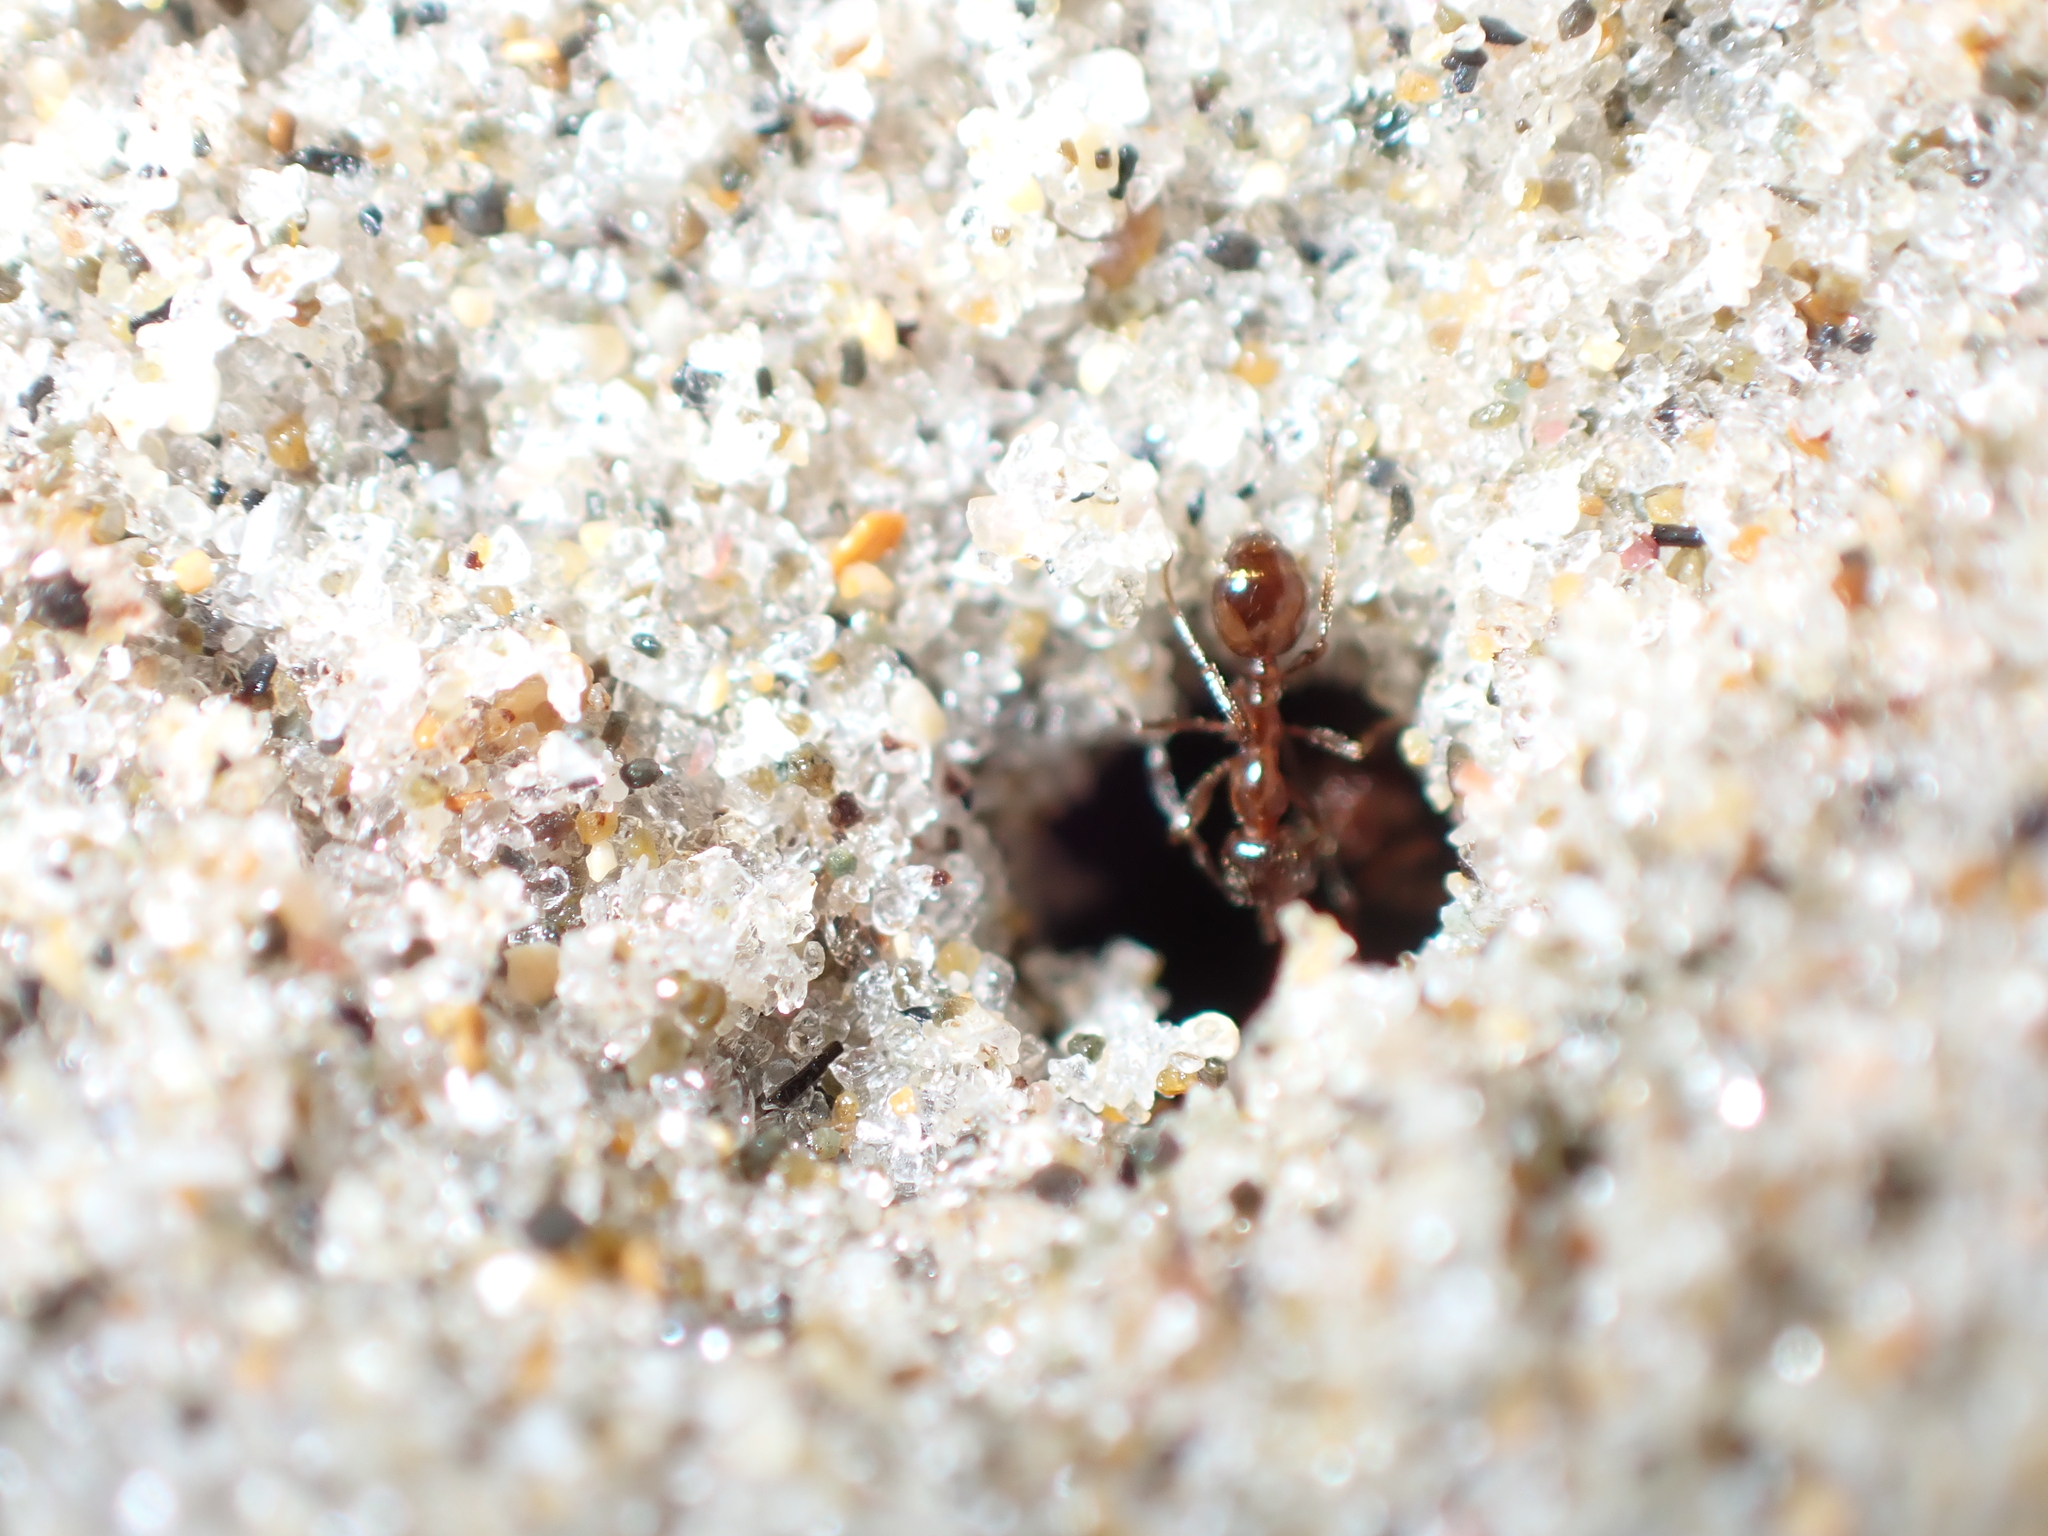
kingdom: Animalia
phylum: Arthropoda
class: Insecta
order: Hymenoptera
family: Formicidae
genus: Monomorium
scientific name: Monomorium antarcticum
